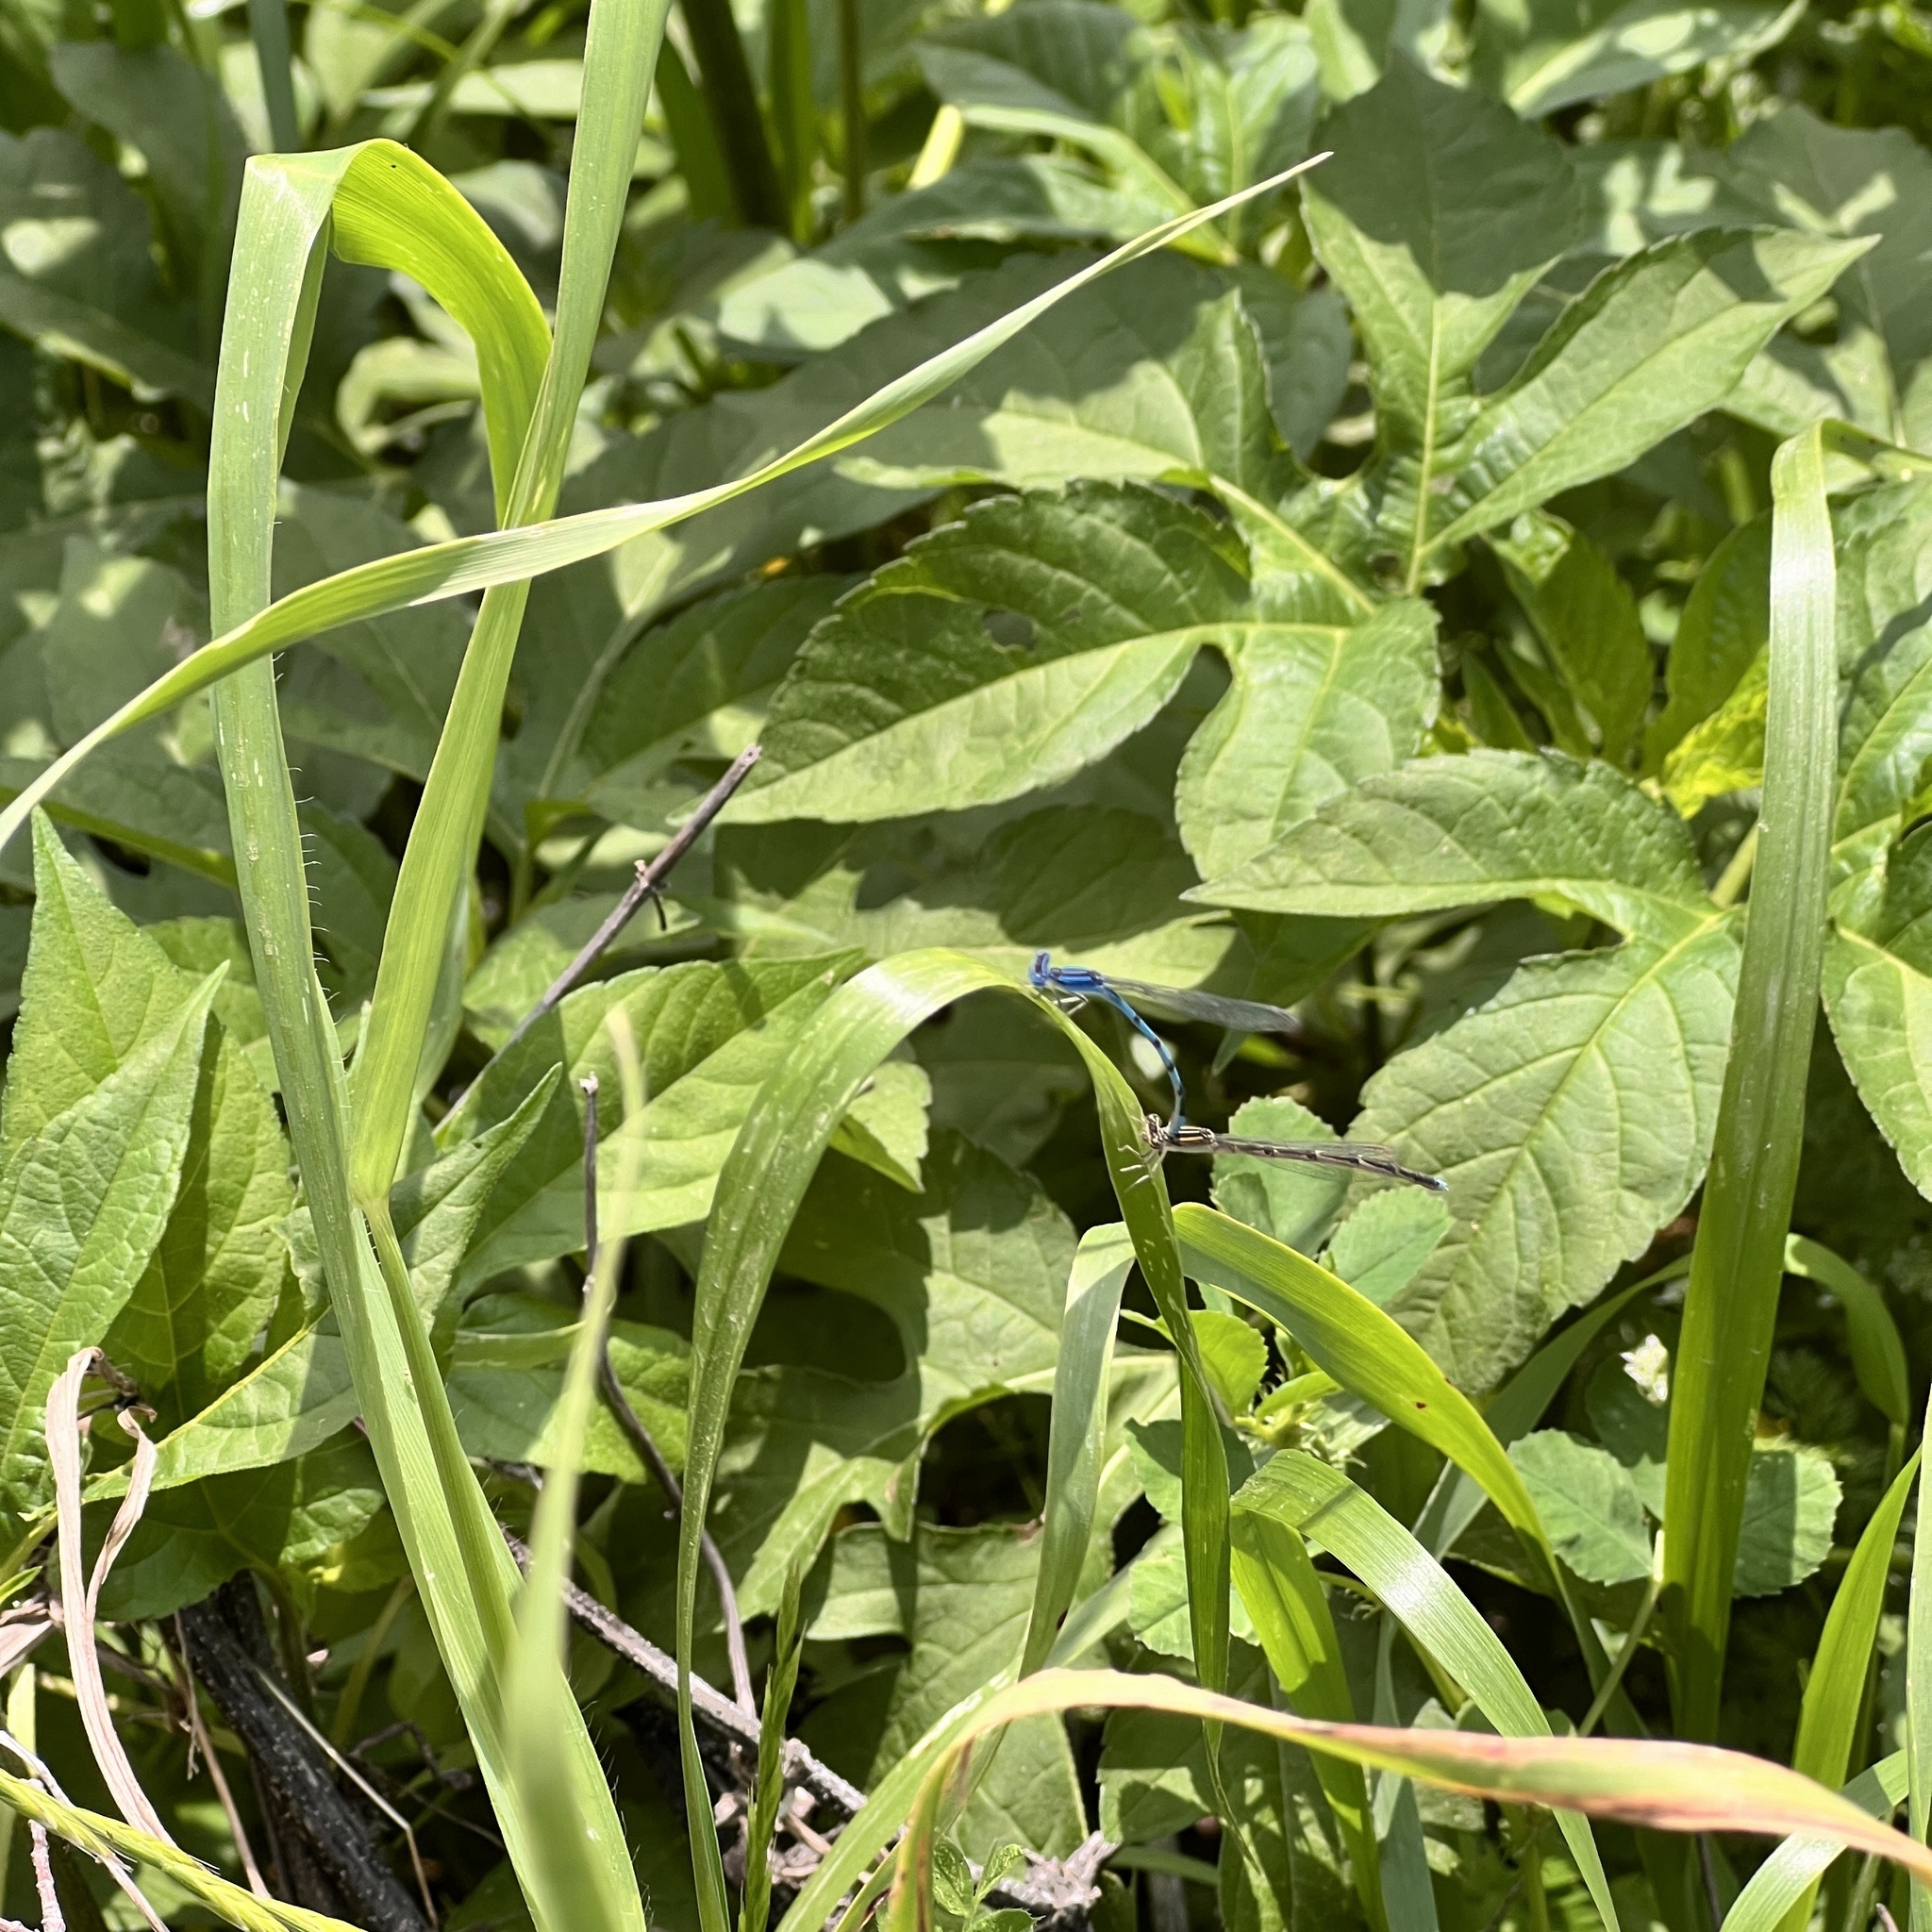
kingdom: Animalia
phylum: Arthropoda
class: Insecta
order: Odonata
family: Coenagrionidae
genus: Enallagma
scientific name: Enallagma basidens
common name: Double-striped bluet
